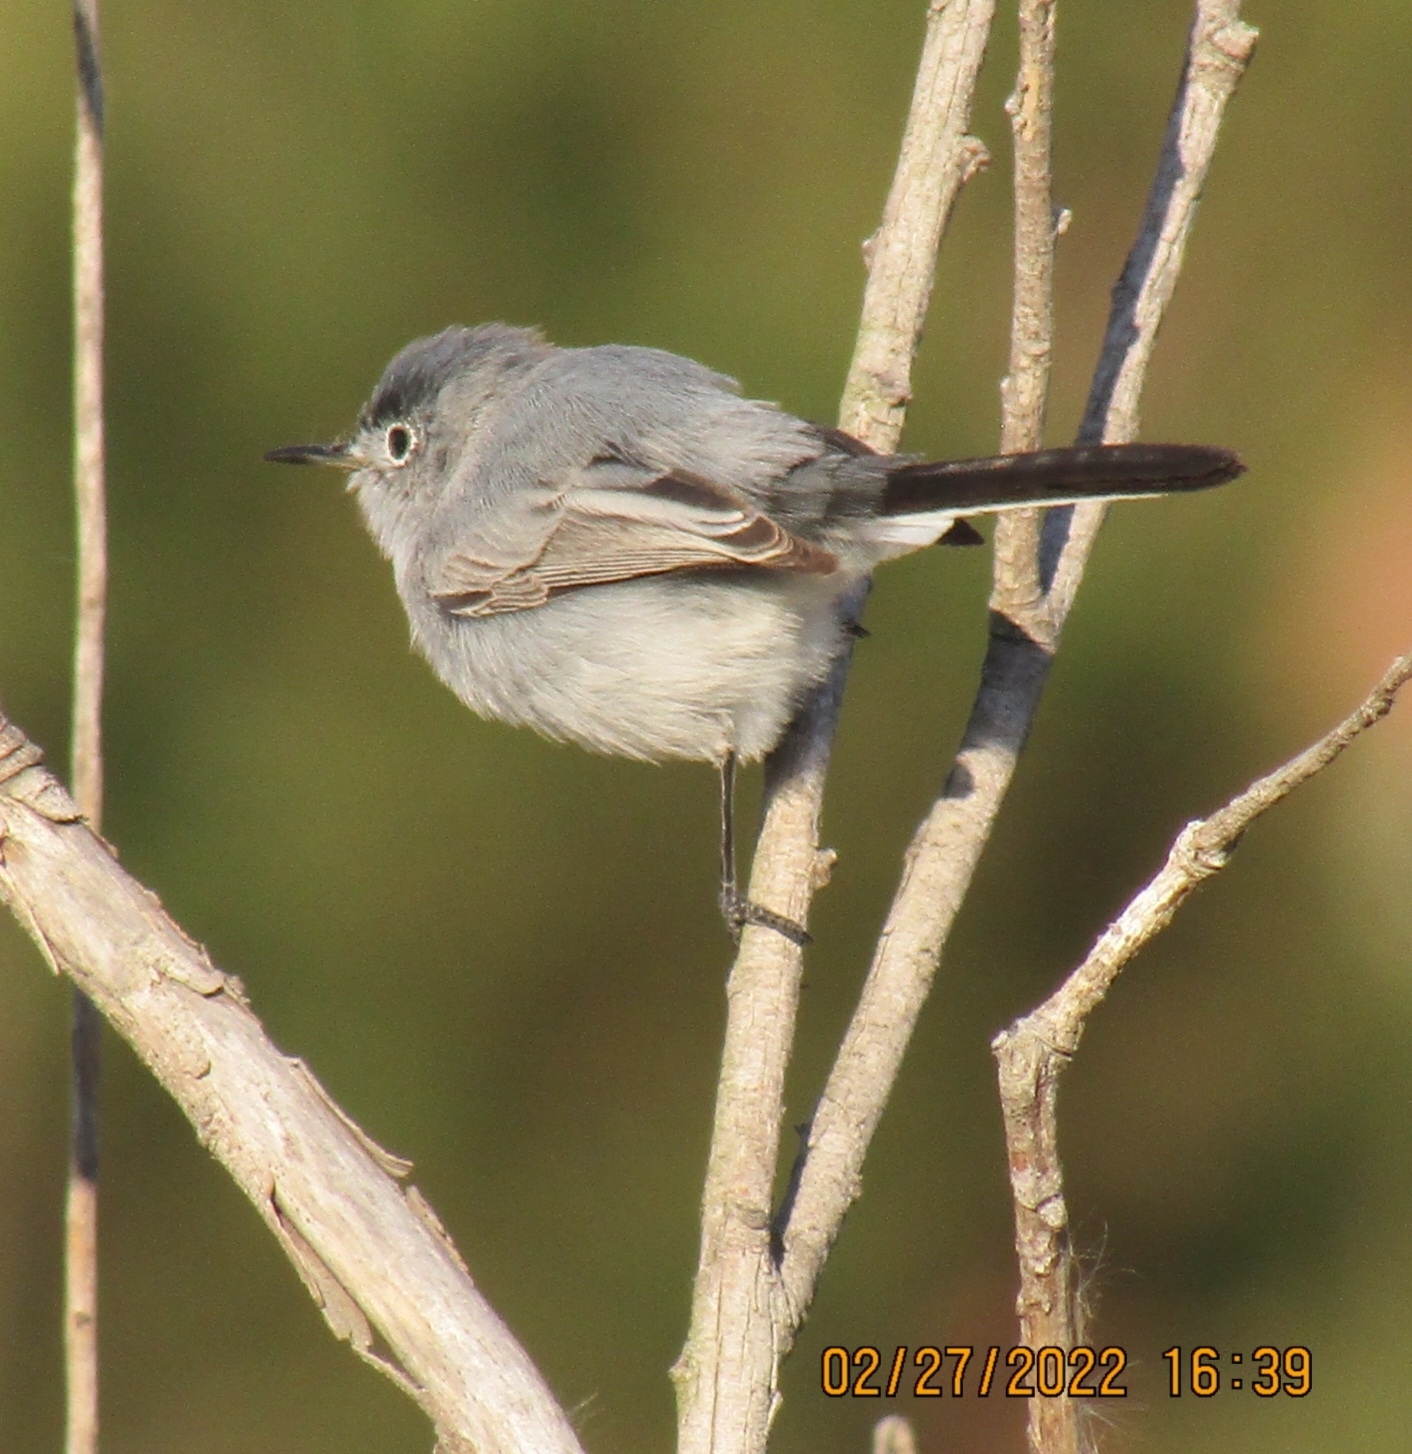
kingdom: Animalia
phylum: Chordata
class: Aves
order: Passeriformes
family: Polioptilidae
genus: Polioptila
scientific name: Polioptila caerulea
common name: Blue-gray gnatcatcher
